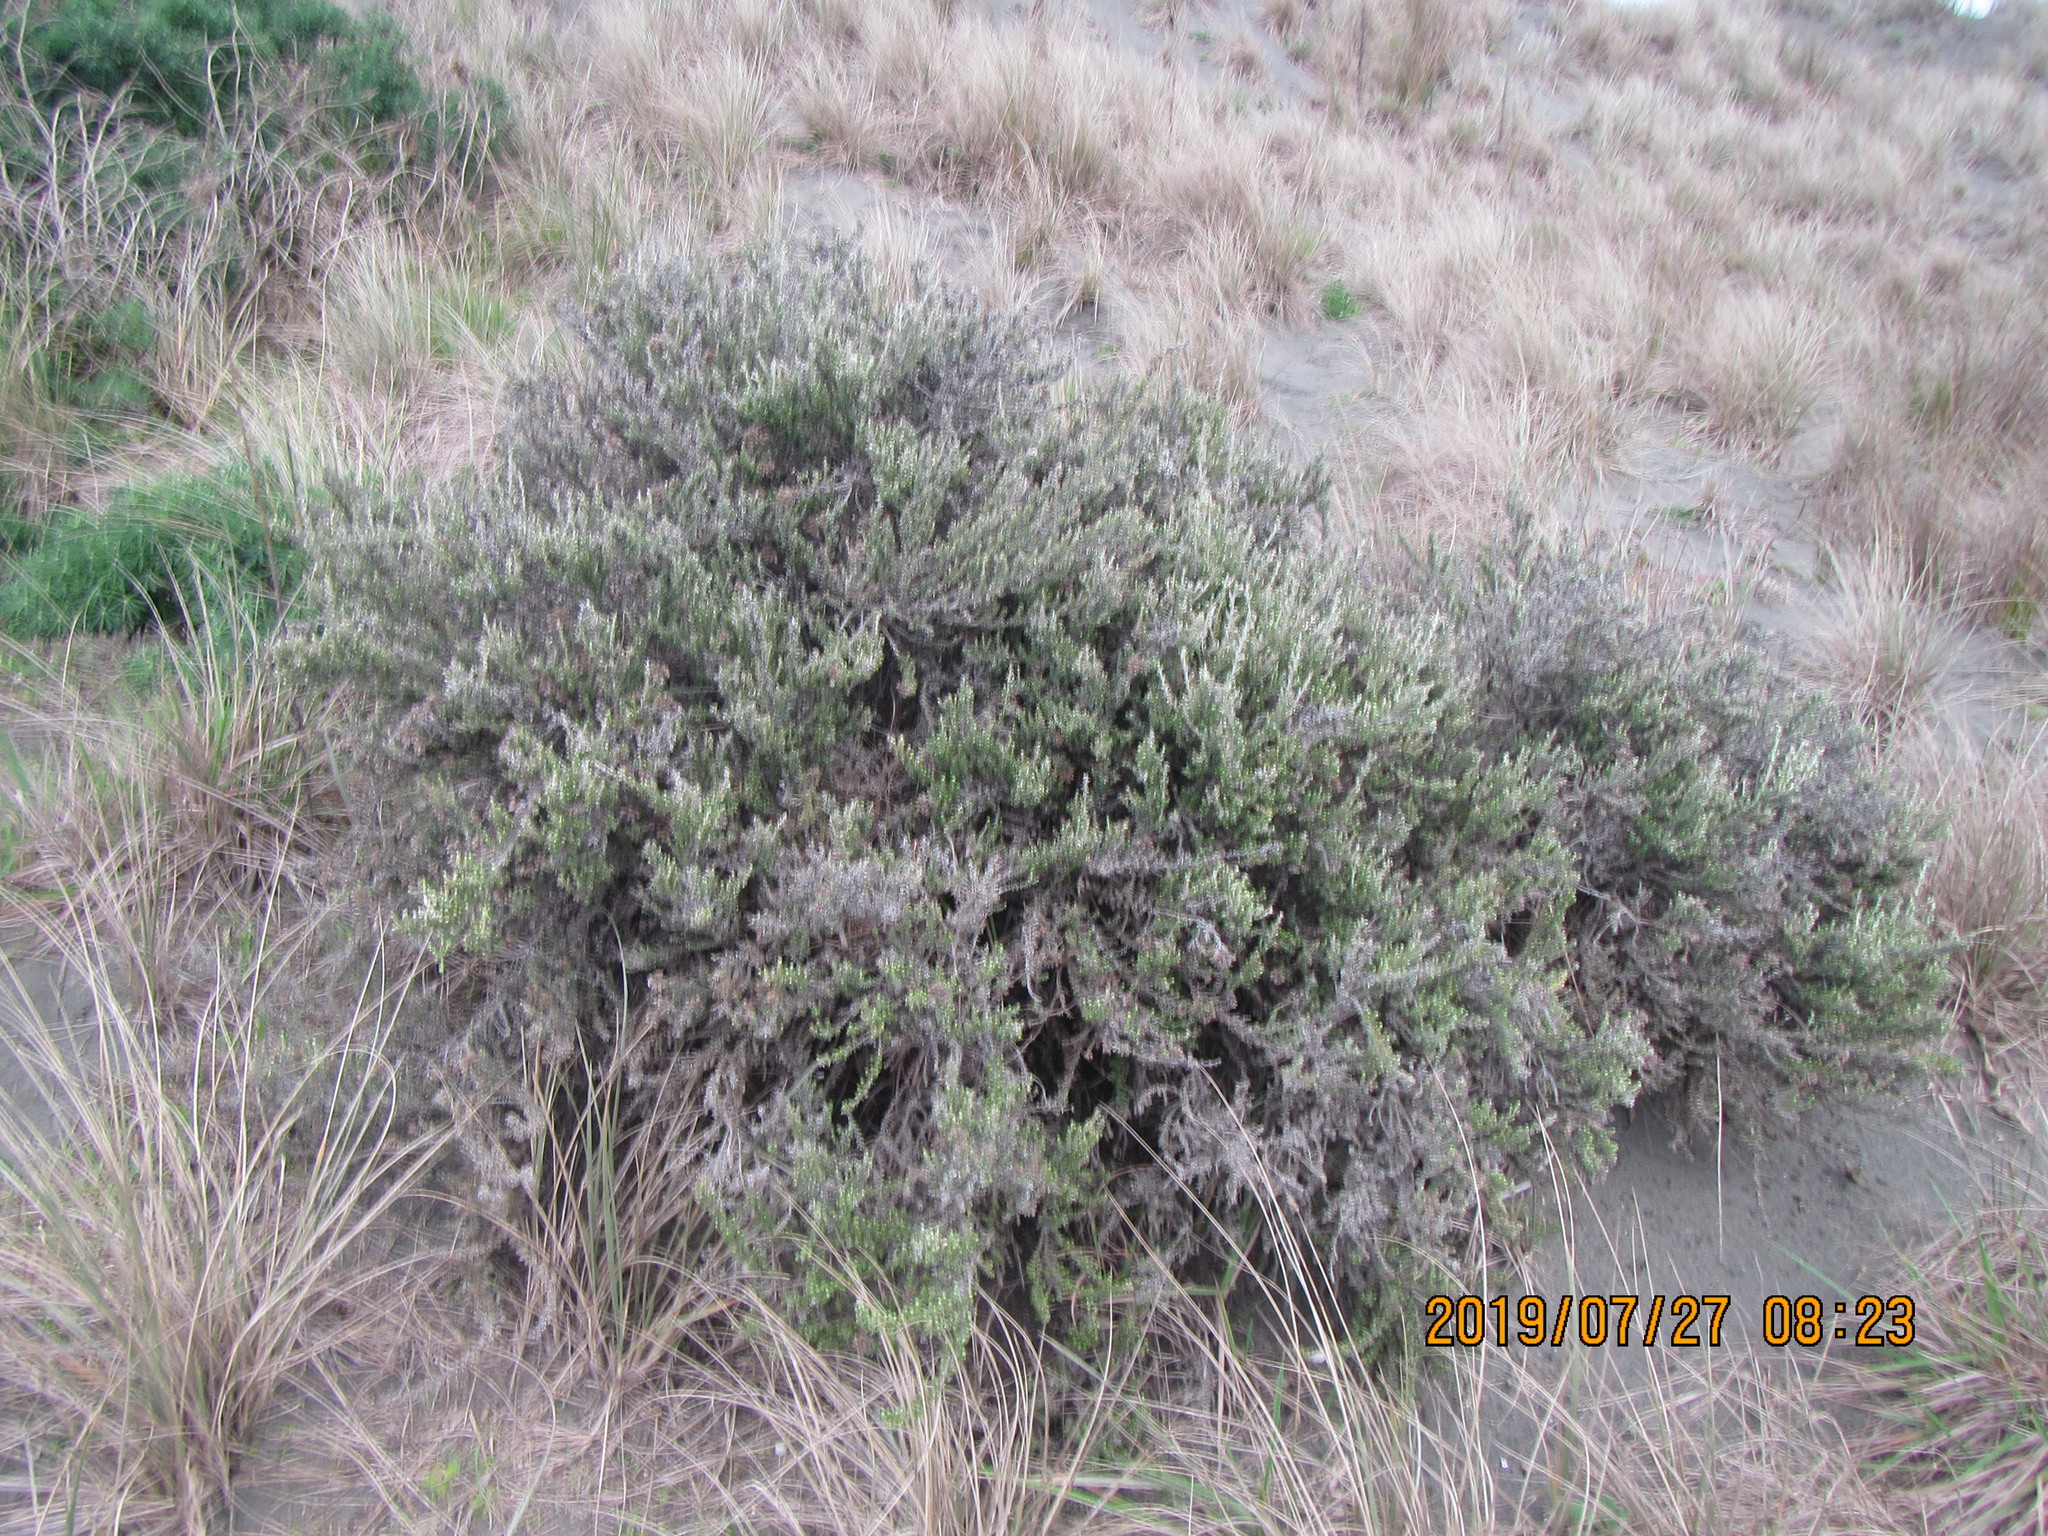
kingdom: Plantae
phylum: Tracheophyta
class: Magnoliopsida
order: Asterales
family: Asteraceae
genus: Ozothamnus
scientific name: Ozothamnus leptophyllus
